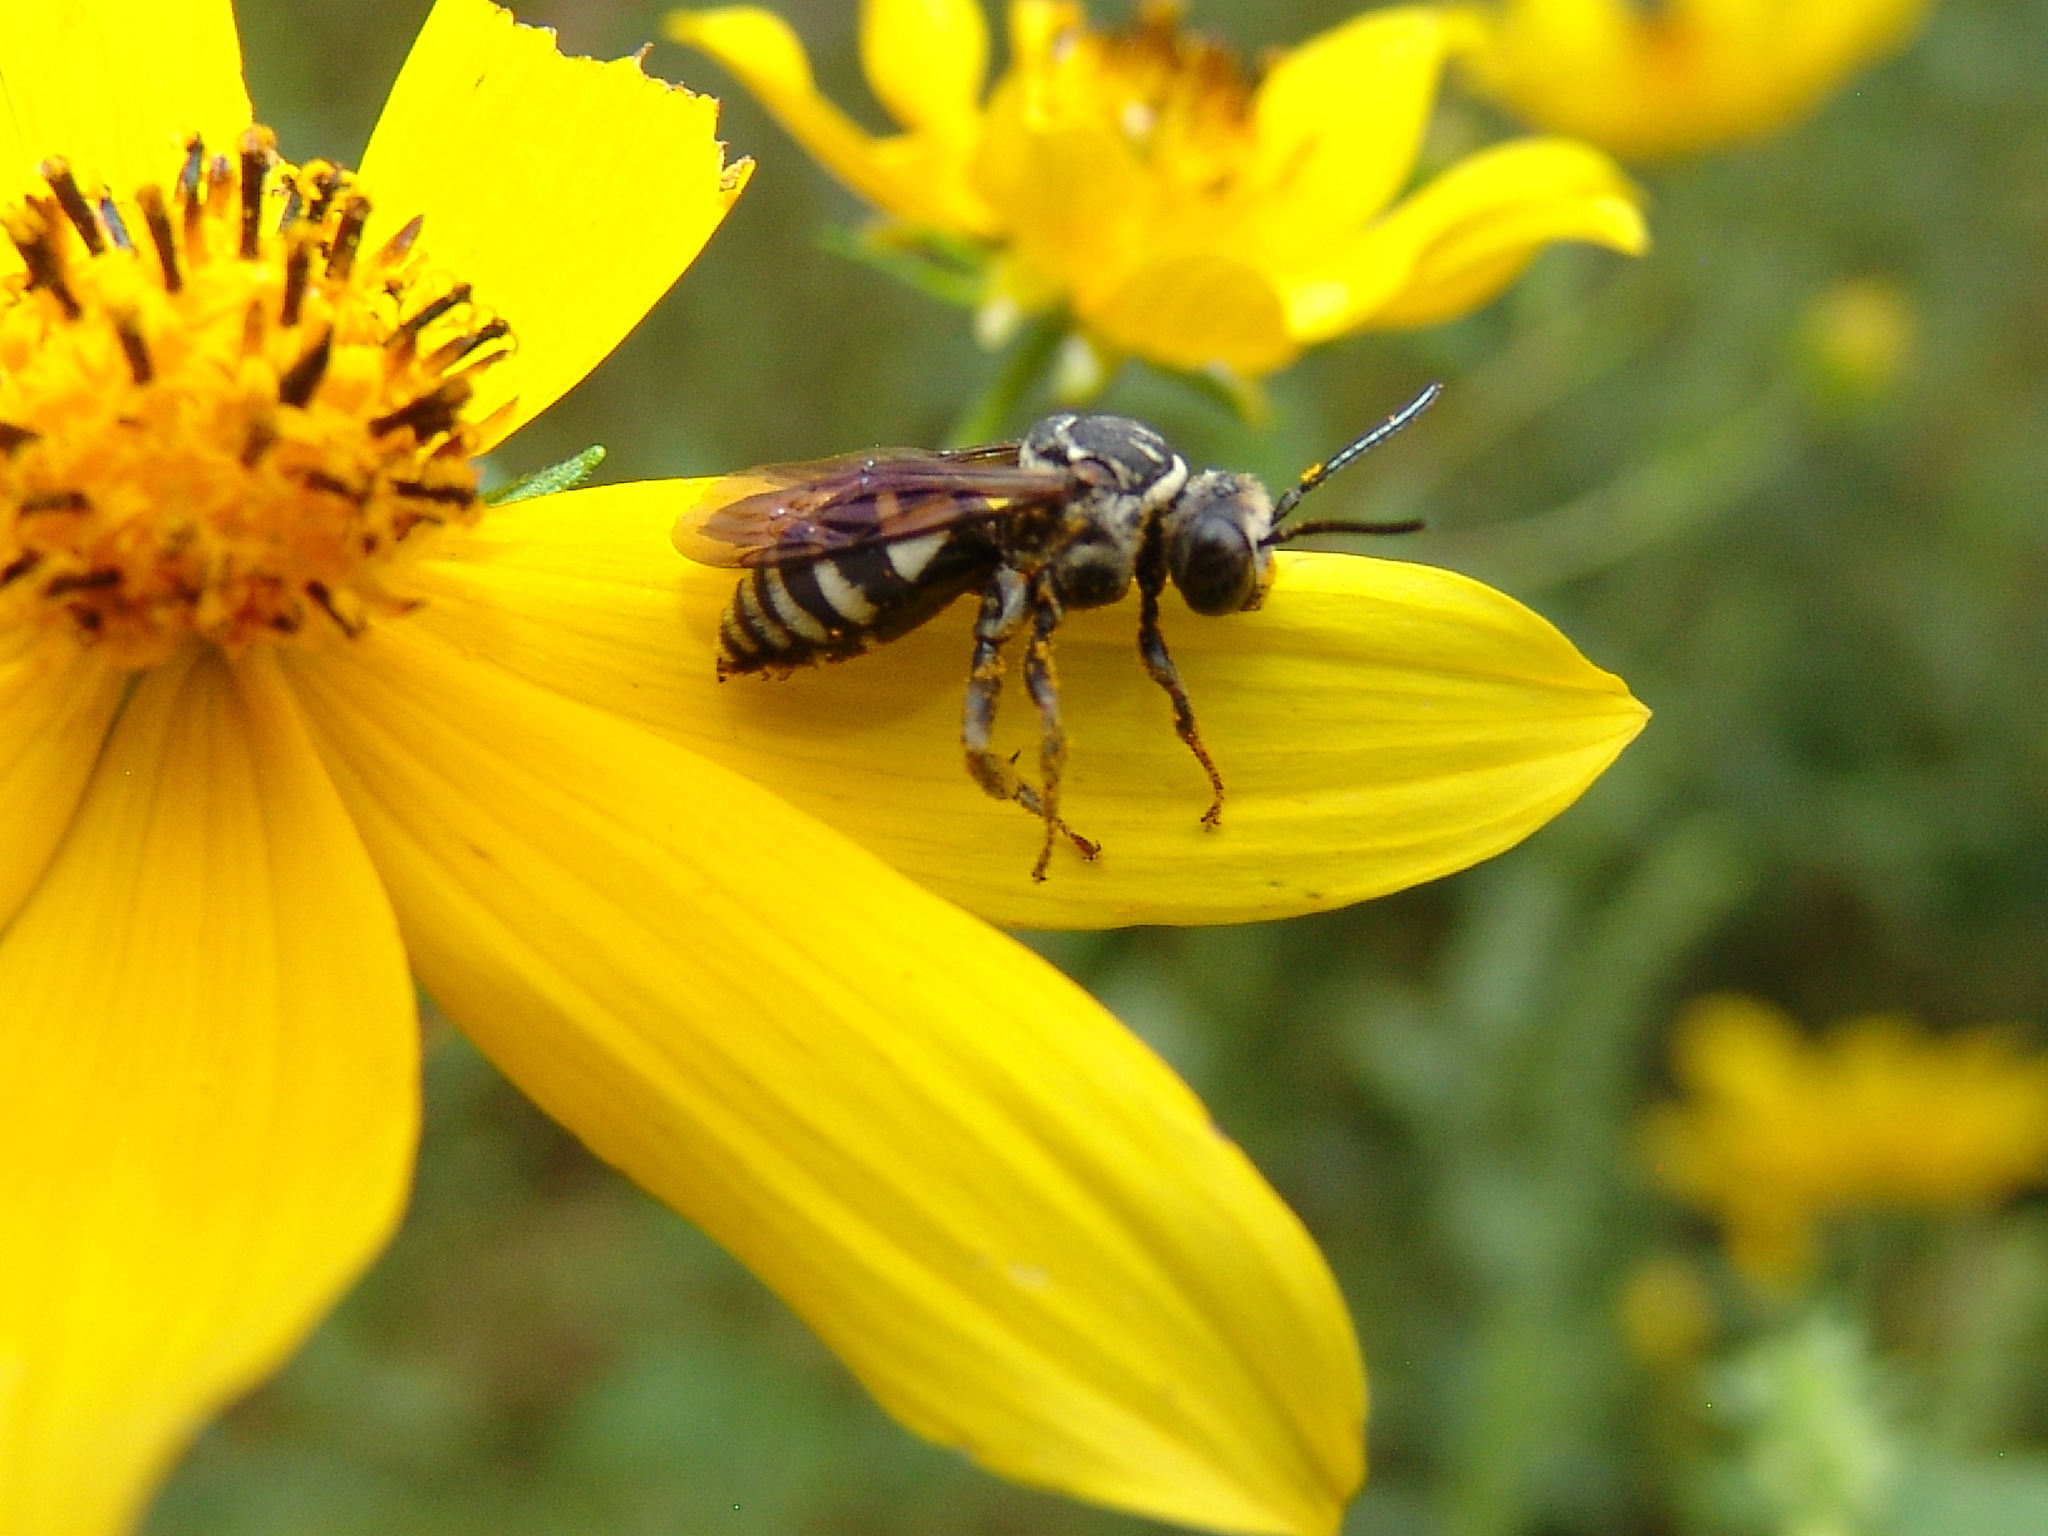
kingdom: Animalia
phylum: Arthropoda
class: Insecta
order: Hymenoptera
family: Apidae
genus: Triepeolus
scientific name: Triepeolus lunatus
